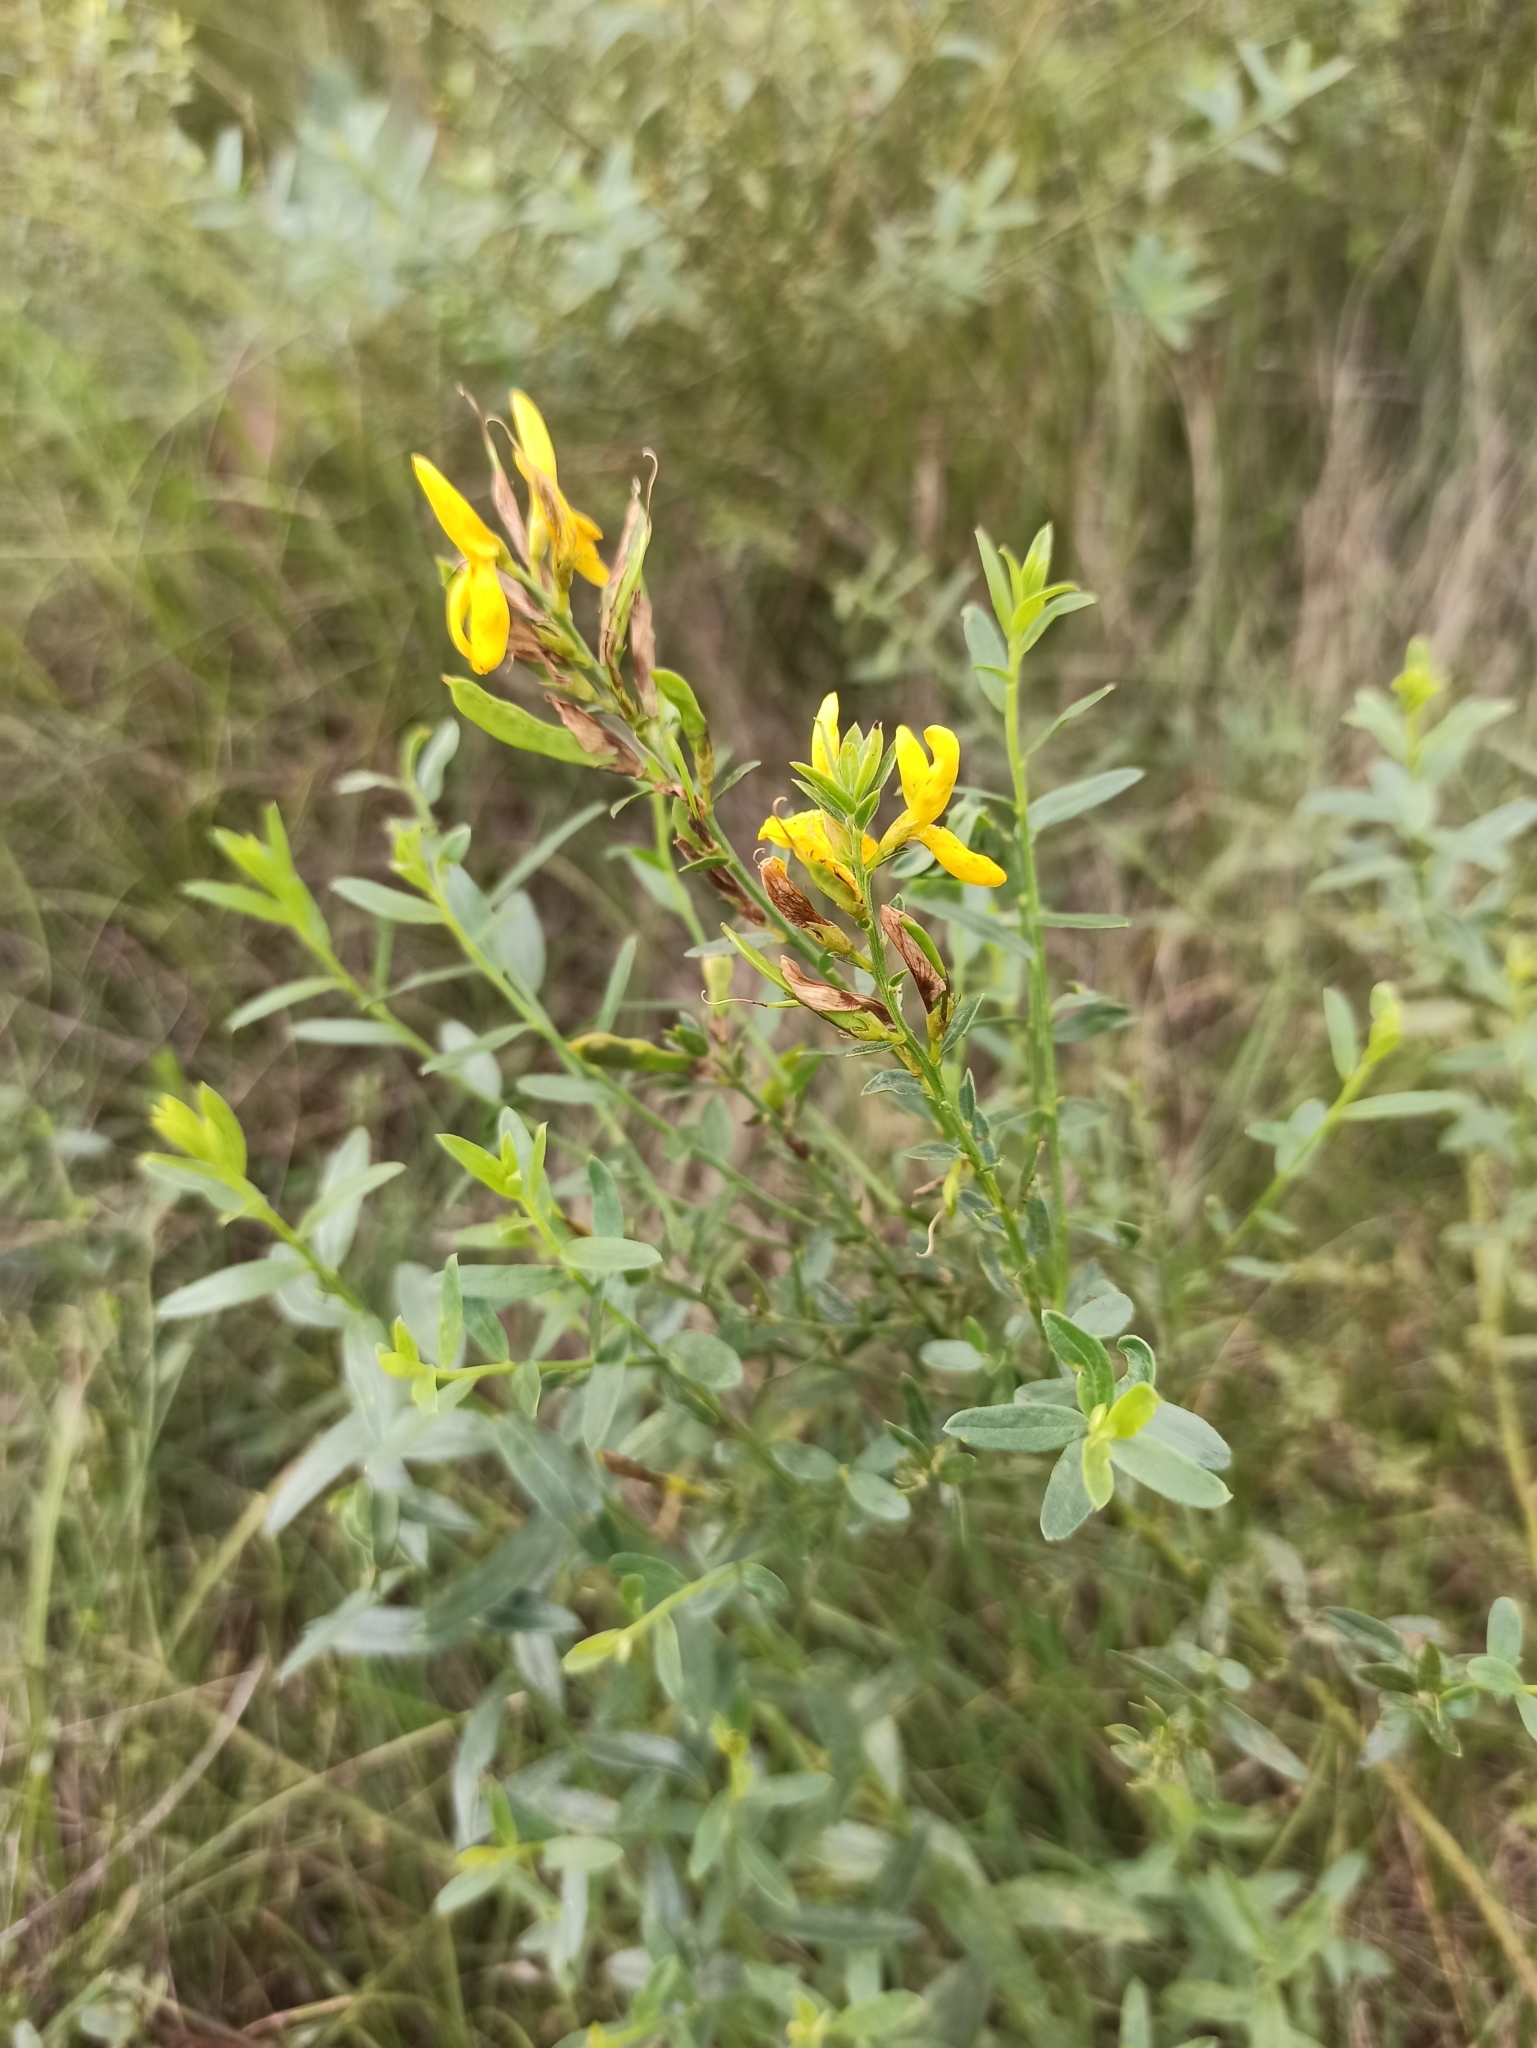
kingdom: Plantae
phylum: Tracheophyta
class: Magnoliopsida
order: Fabales
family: Fabaceae
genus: Genista
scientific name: Genista tinctoria
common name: Dyer's greenweed
